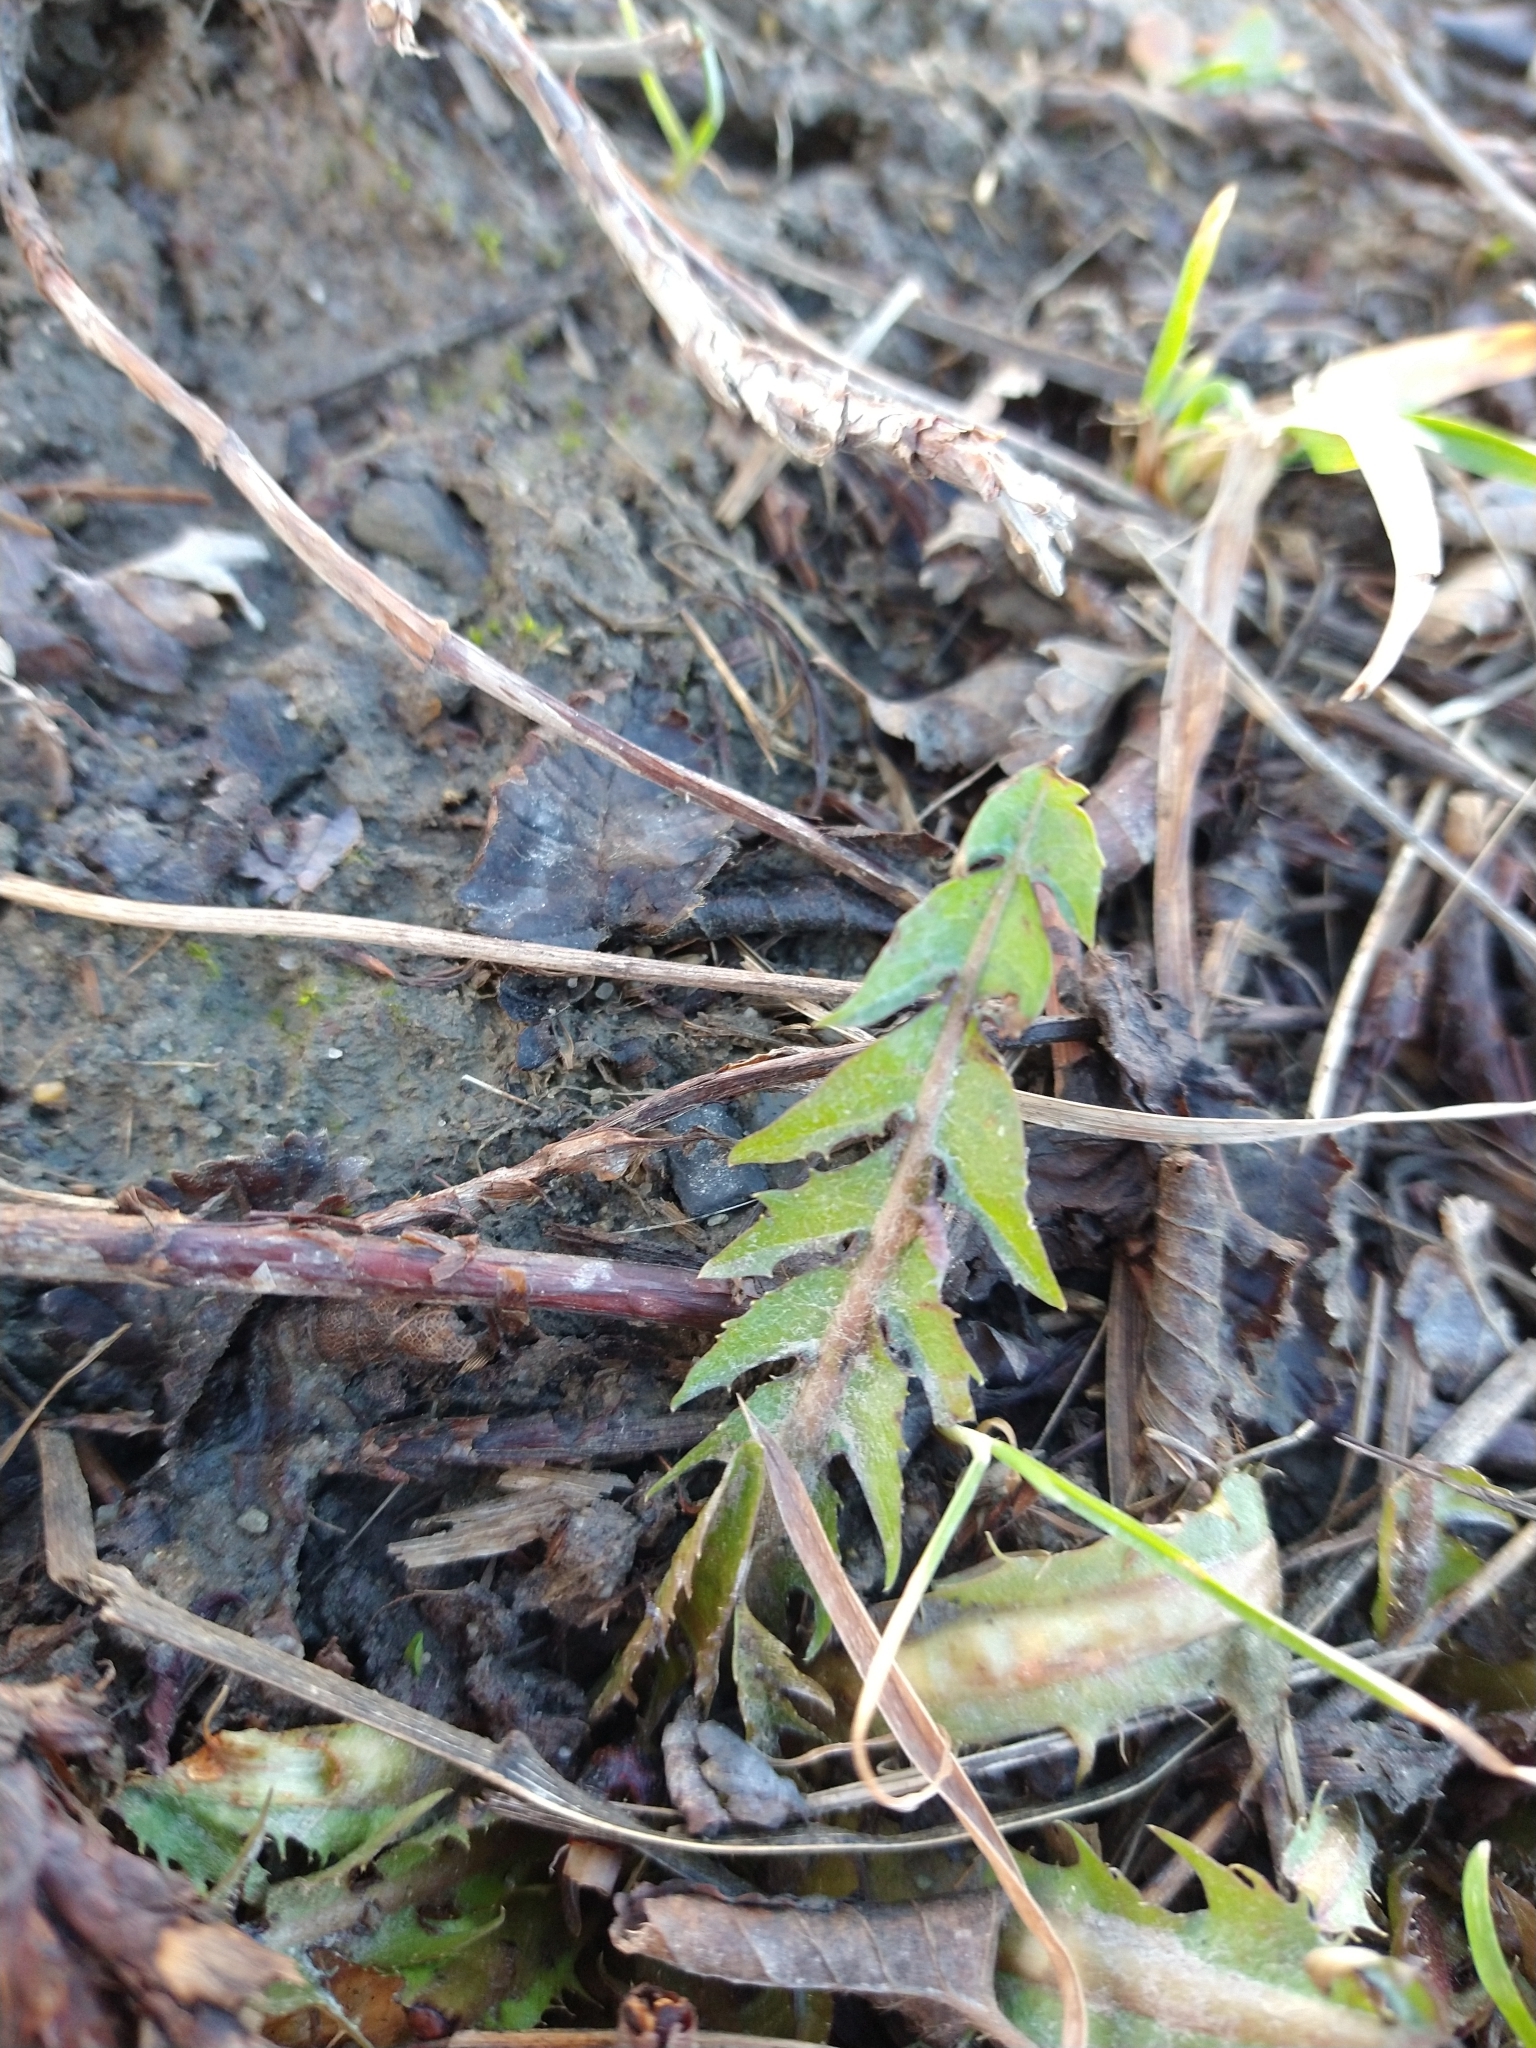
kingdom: Plantae
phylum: Tracheophyta
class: Magnoliopsida
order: Asterales
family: Asteraceae
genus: Taraxacum
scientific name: Taraxacum officinale
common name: Common dandelion
